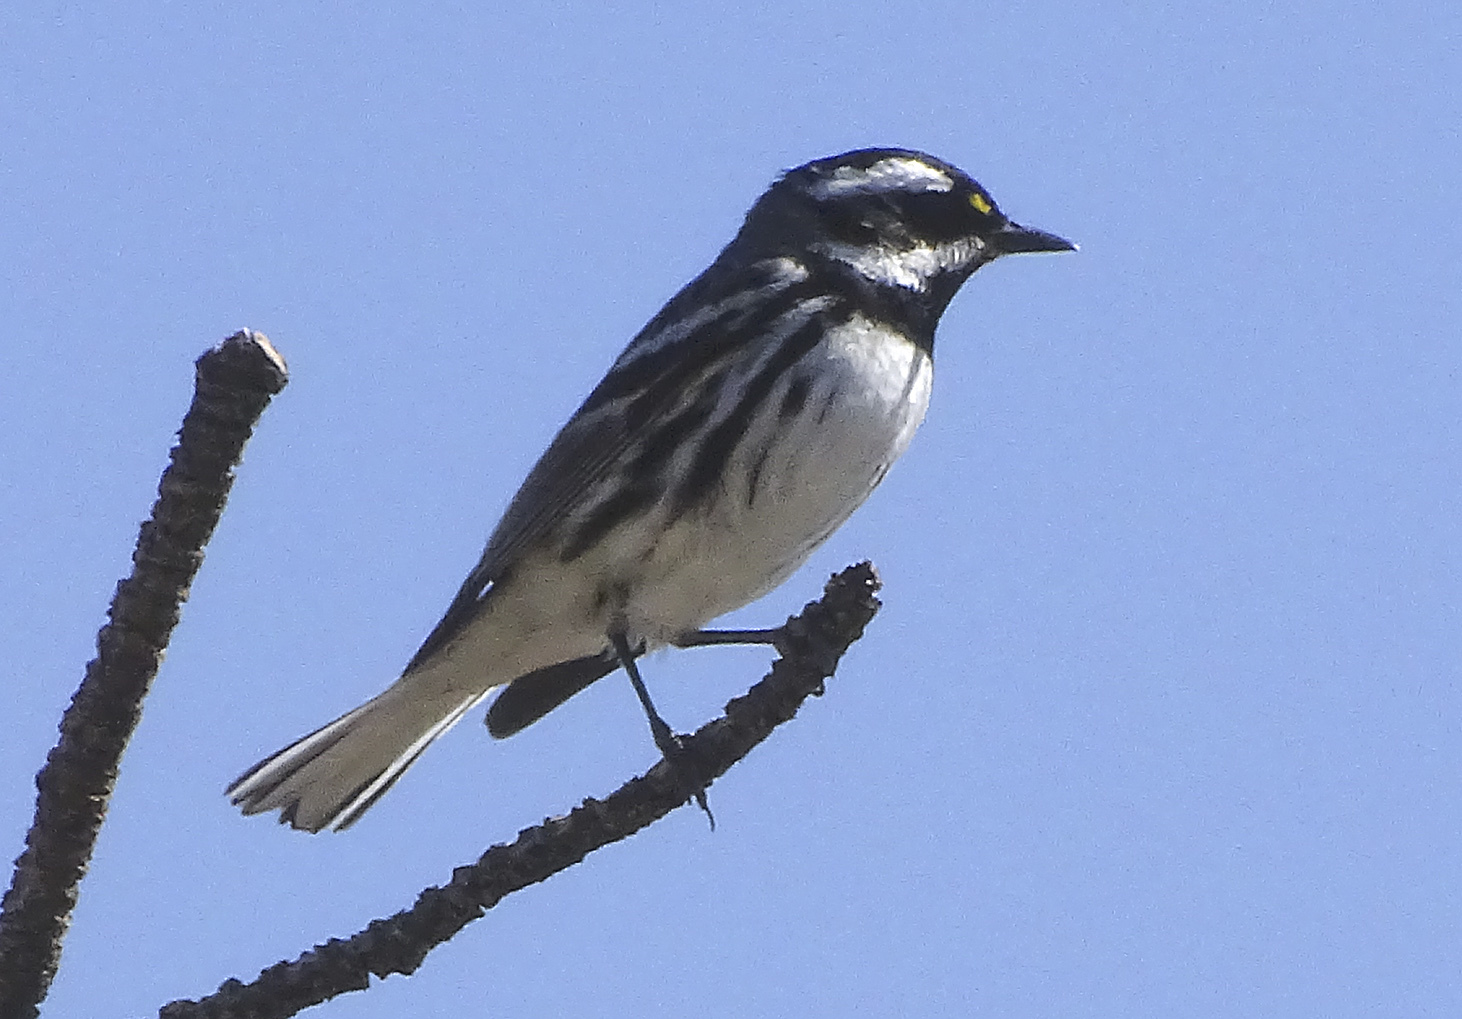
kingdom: Animalia
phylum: Chordata
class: Aves
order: Passeriformes
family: Parulidae
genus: Setophaga
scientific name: Setophaga nigrescens
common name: Black-throated gray warbler
